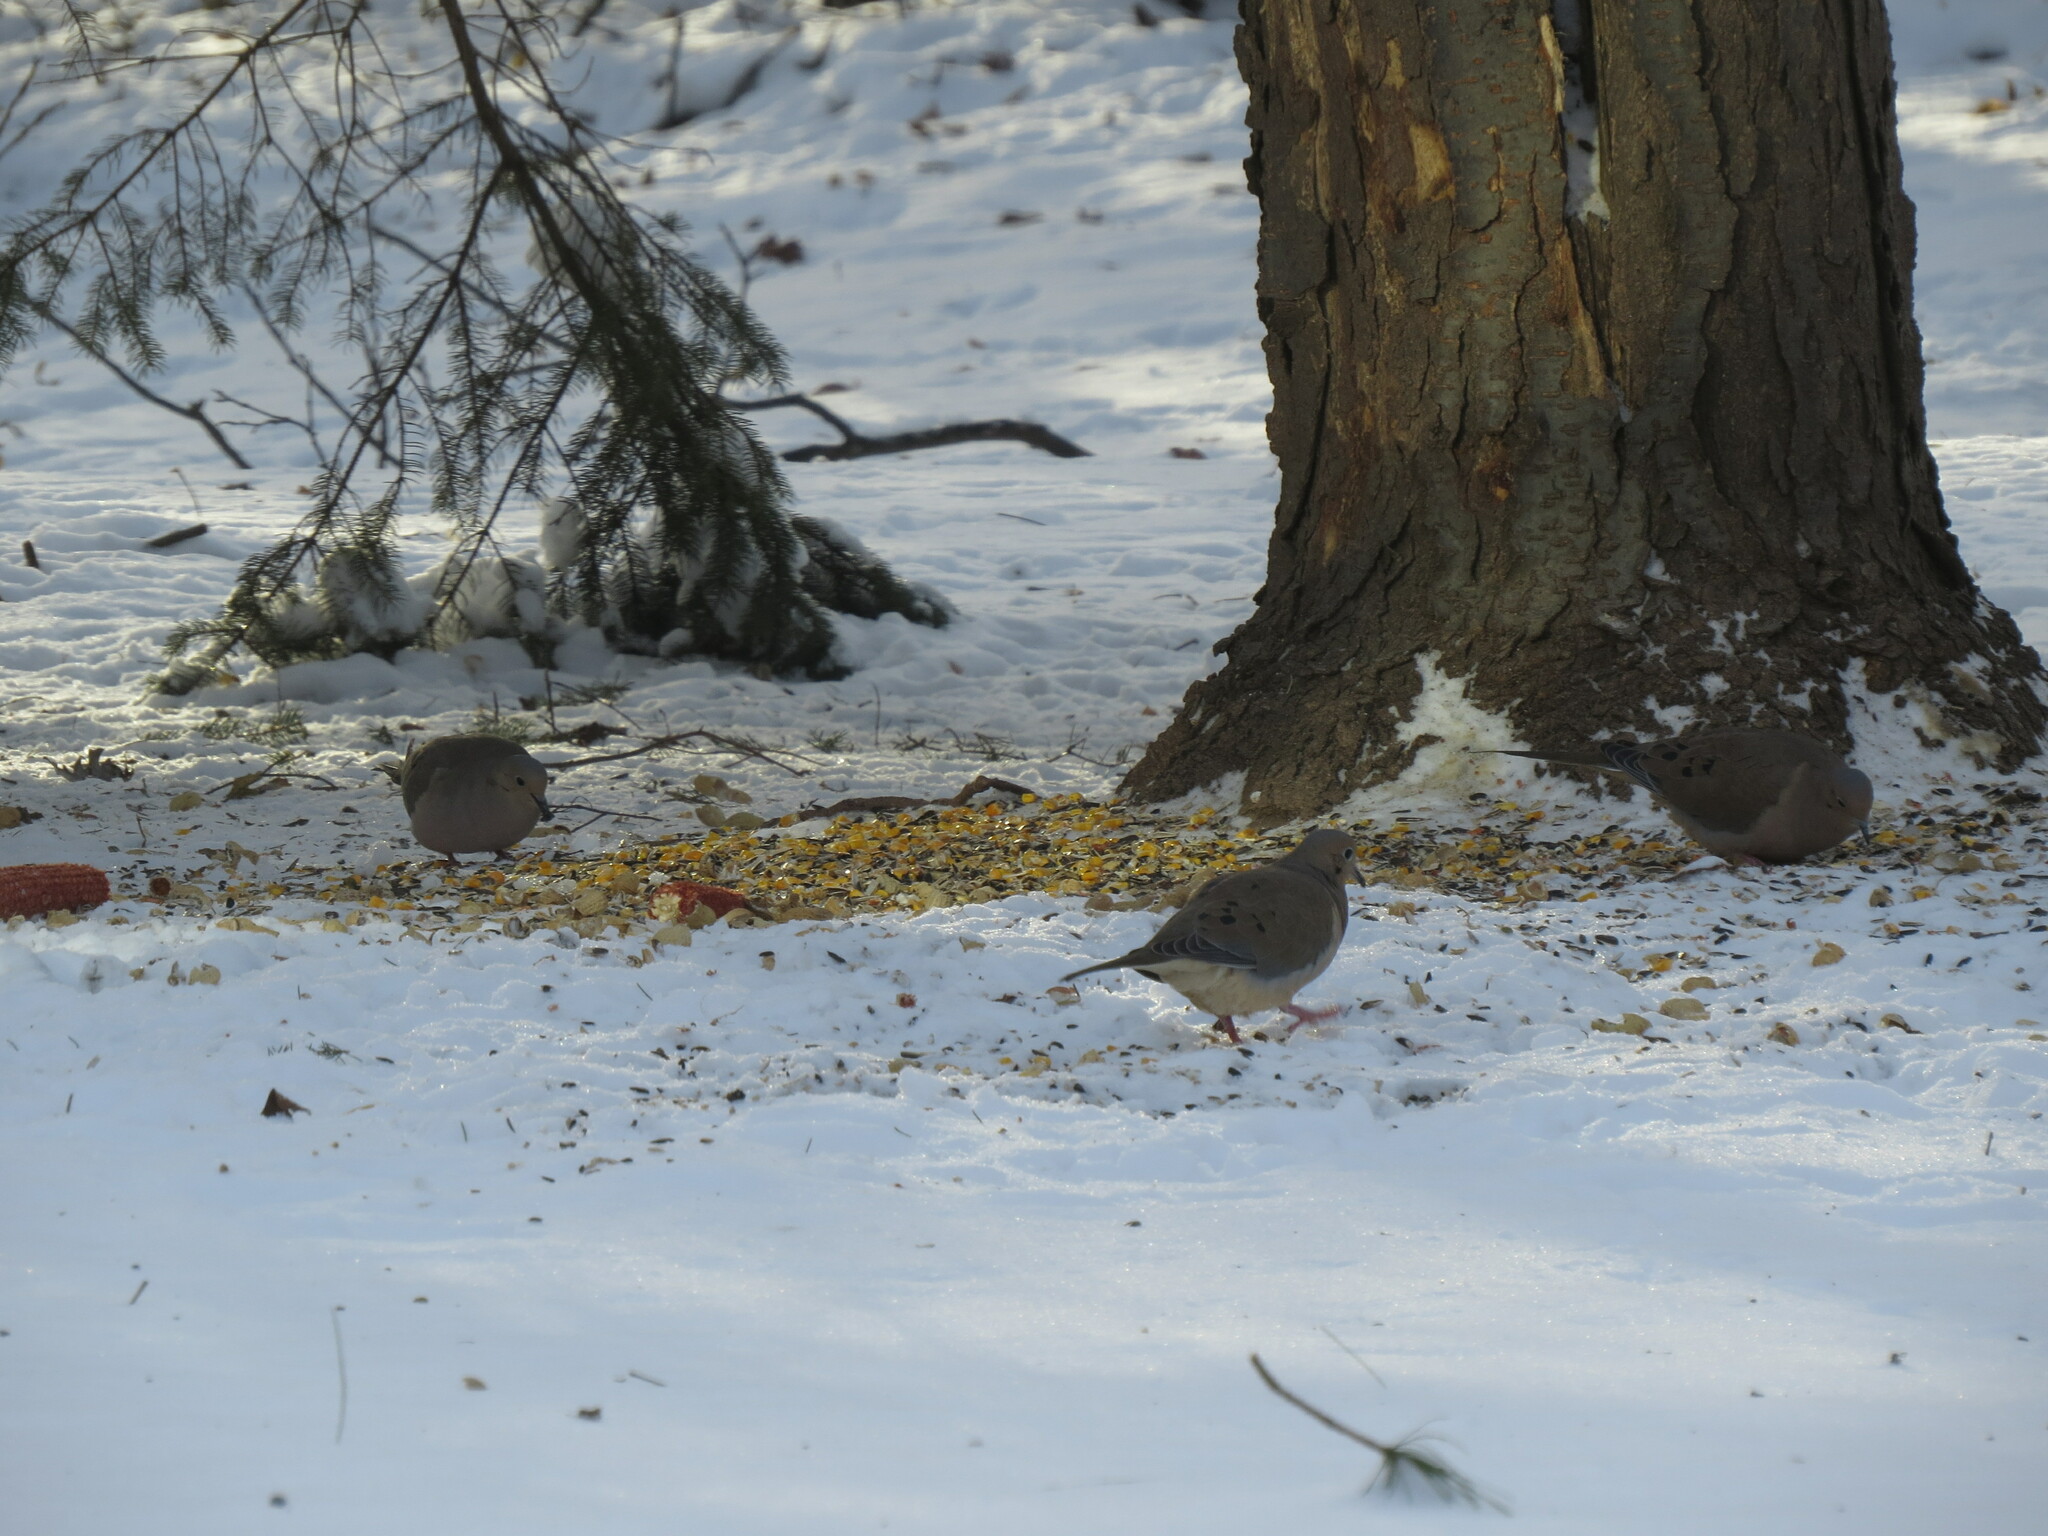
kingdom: Animalia
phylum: Chordata
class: Aves
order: Columbiformes
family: Columbidae
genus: Zenaida
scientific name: Zenaida macroura
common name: Mourning dove
